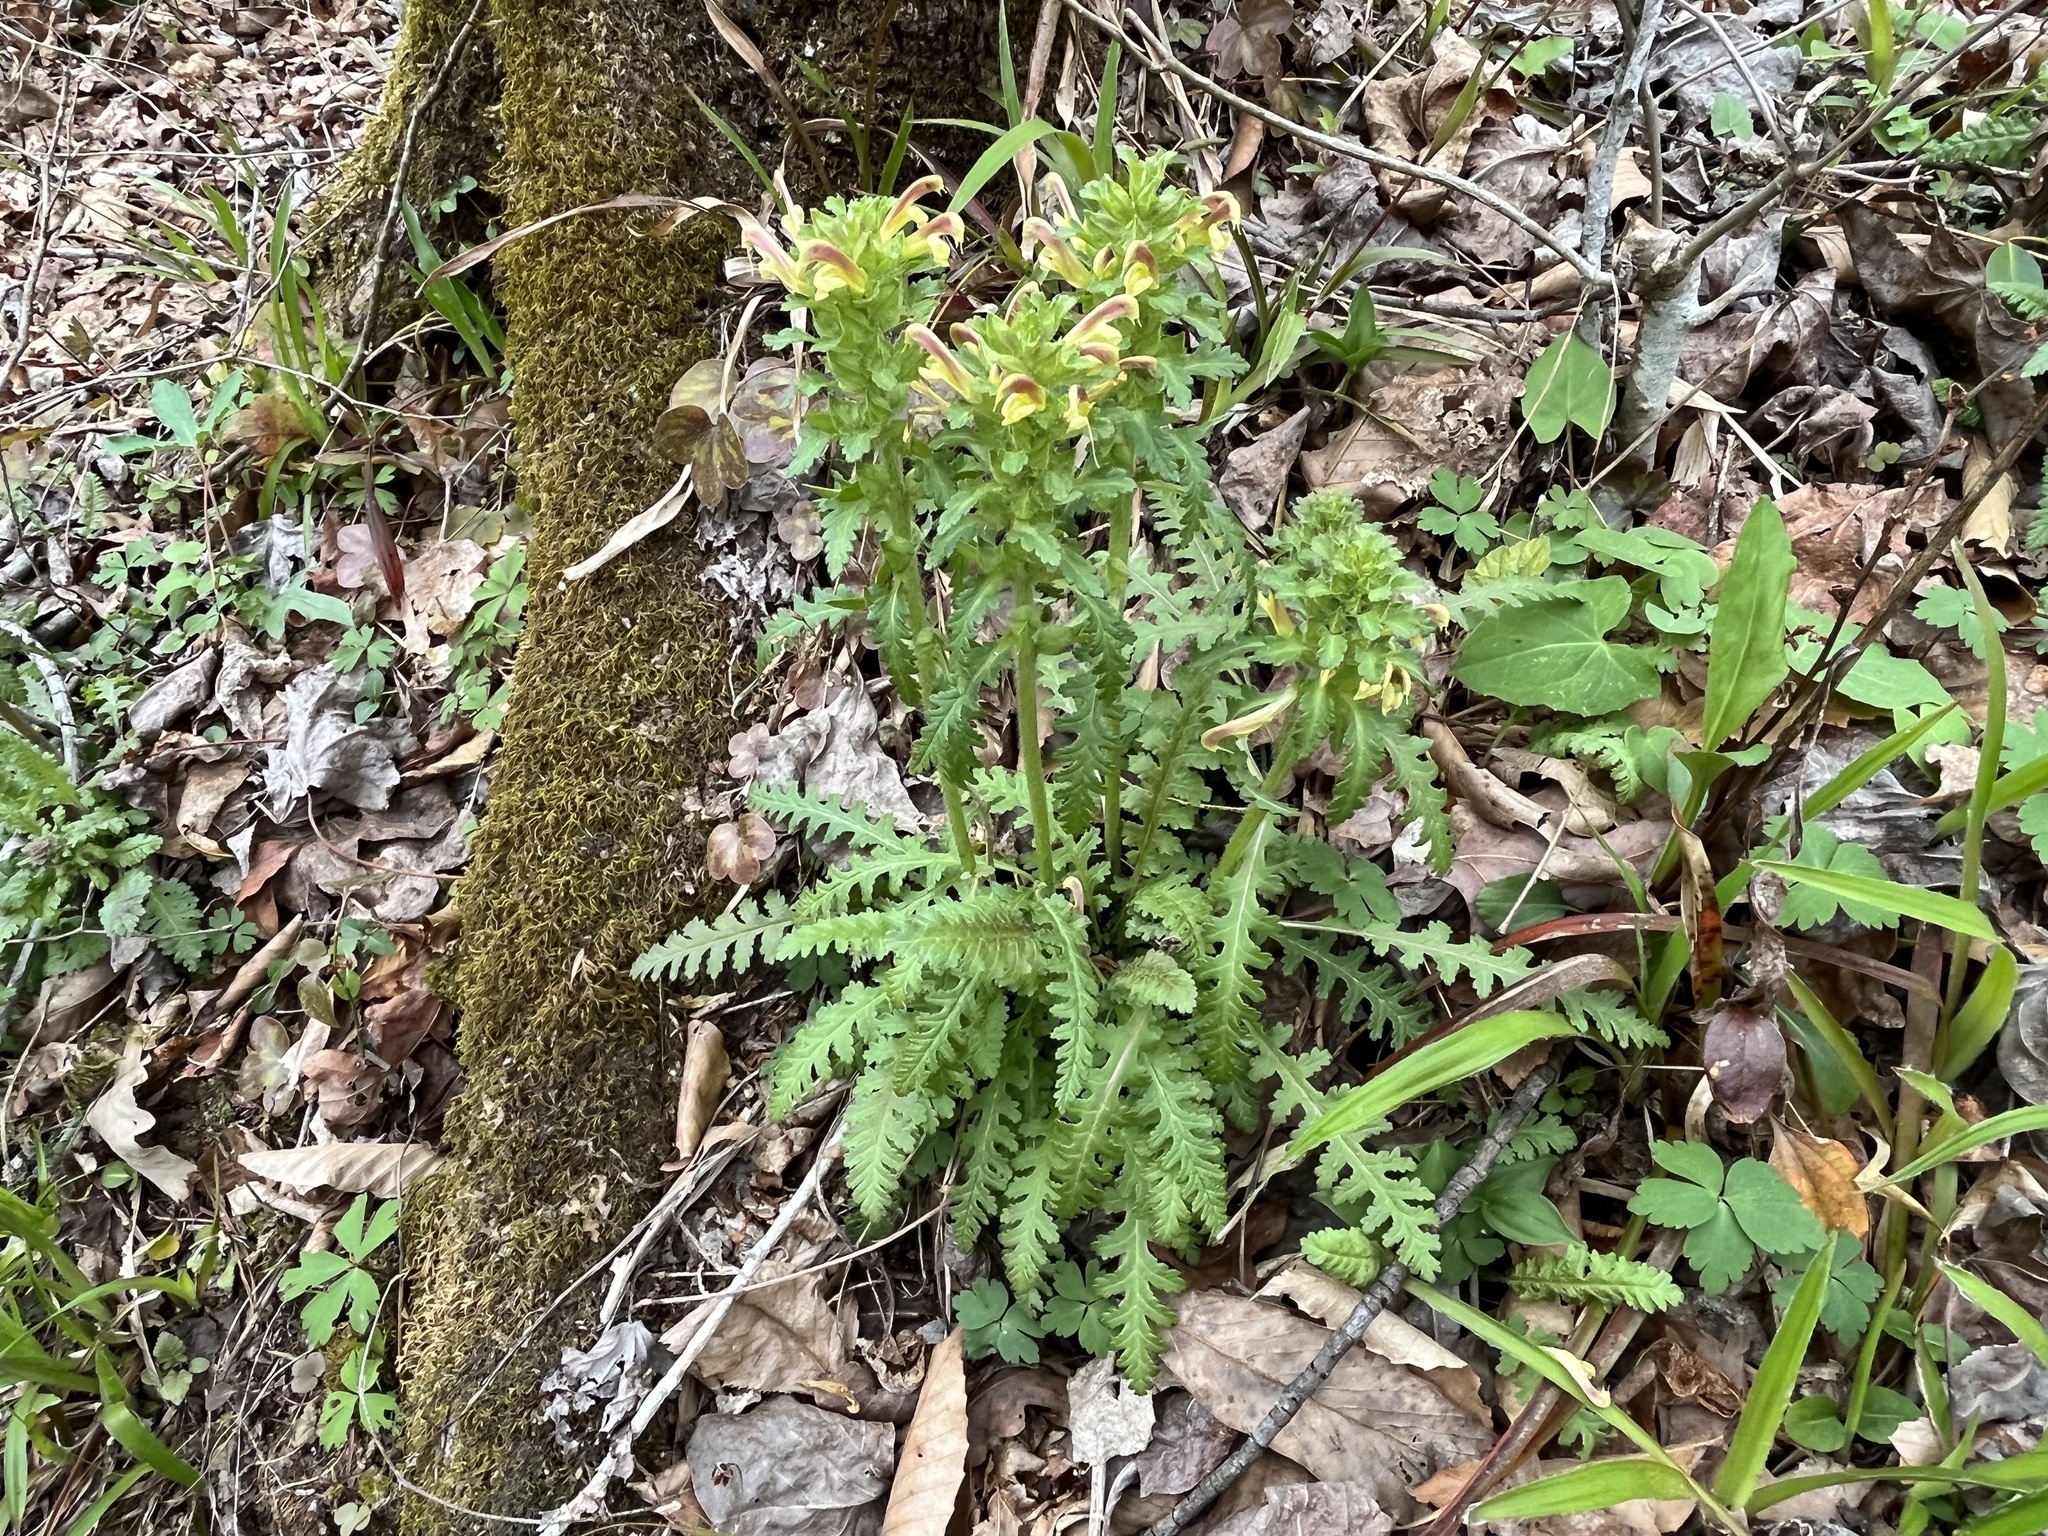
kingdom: Plantae
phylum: Tracheophyta
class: Magnoliopsida
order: Lamiales
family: Orobanchaceae
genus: Pedicularis
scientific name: Pedicularis canadensis
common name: Early lousewort
